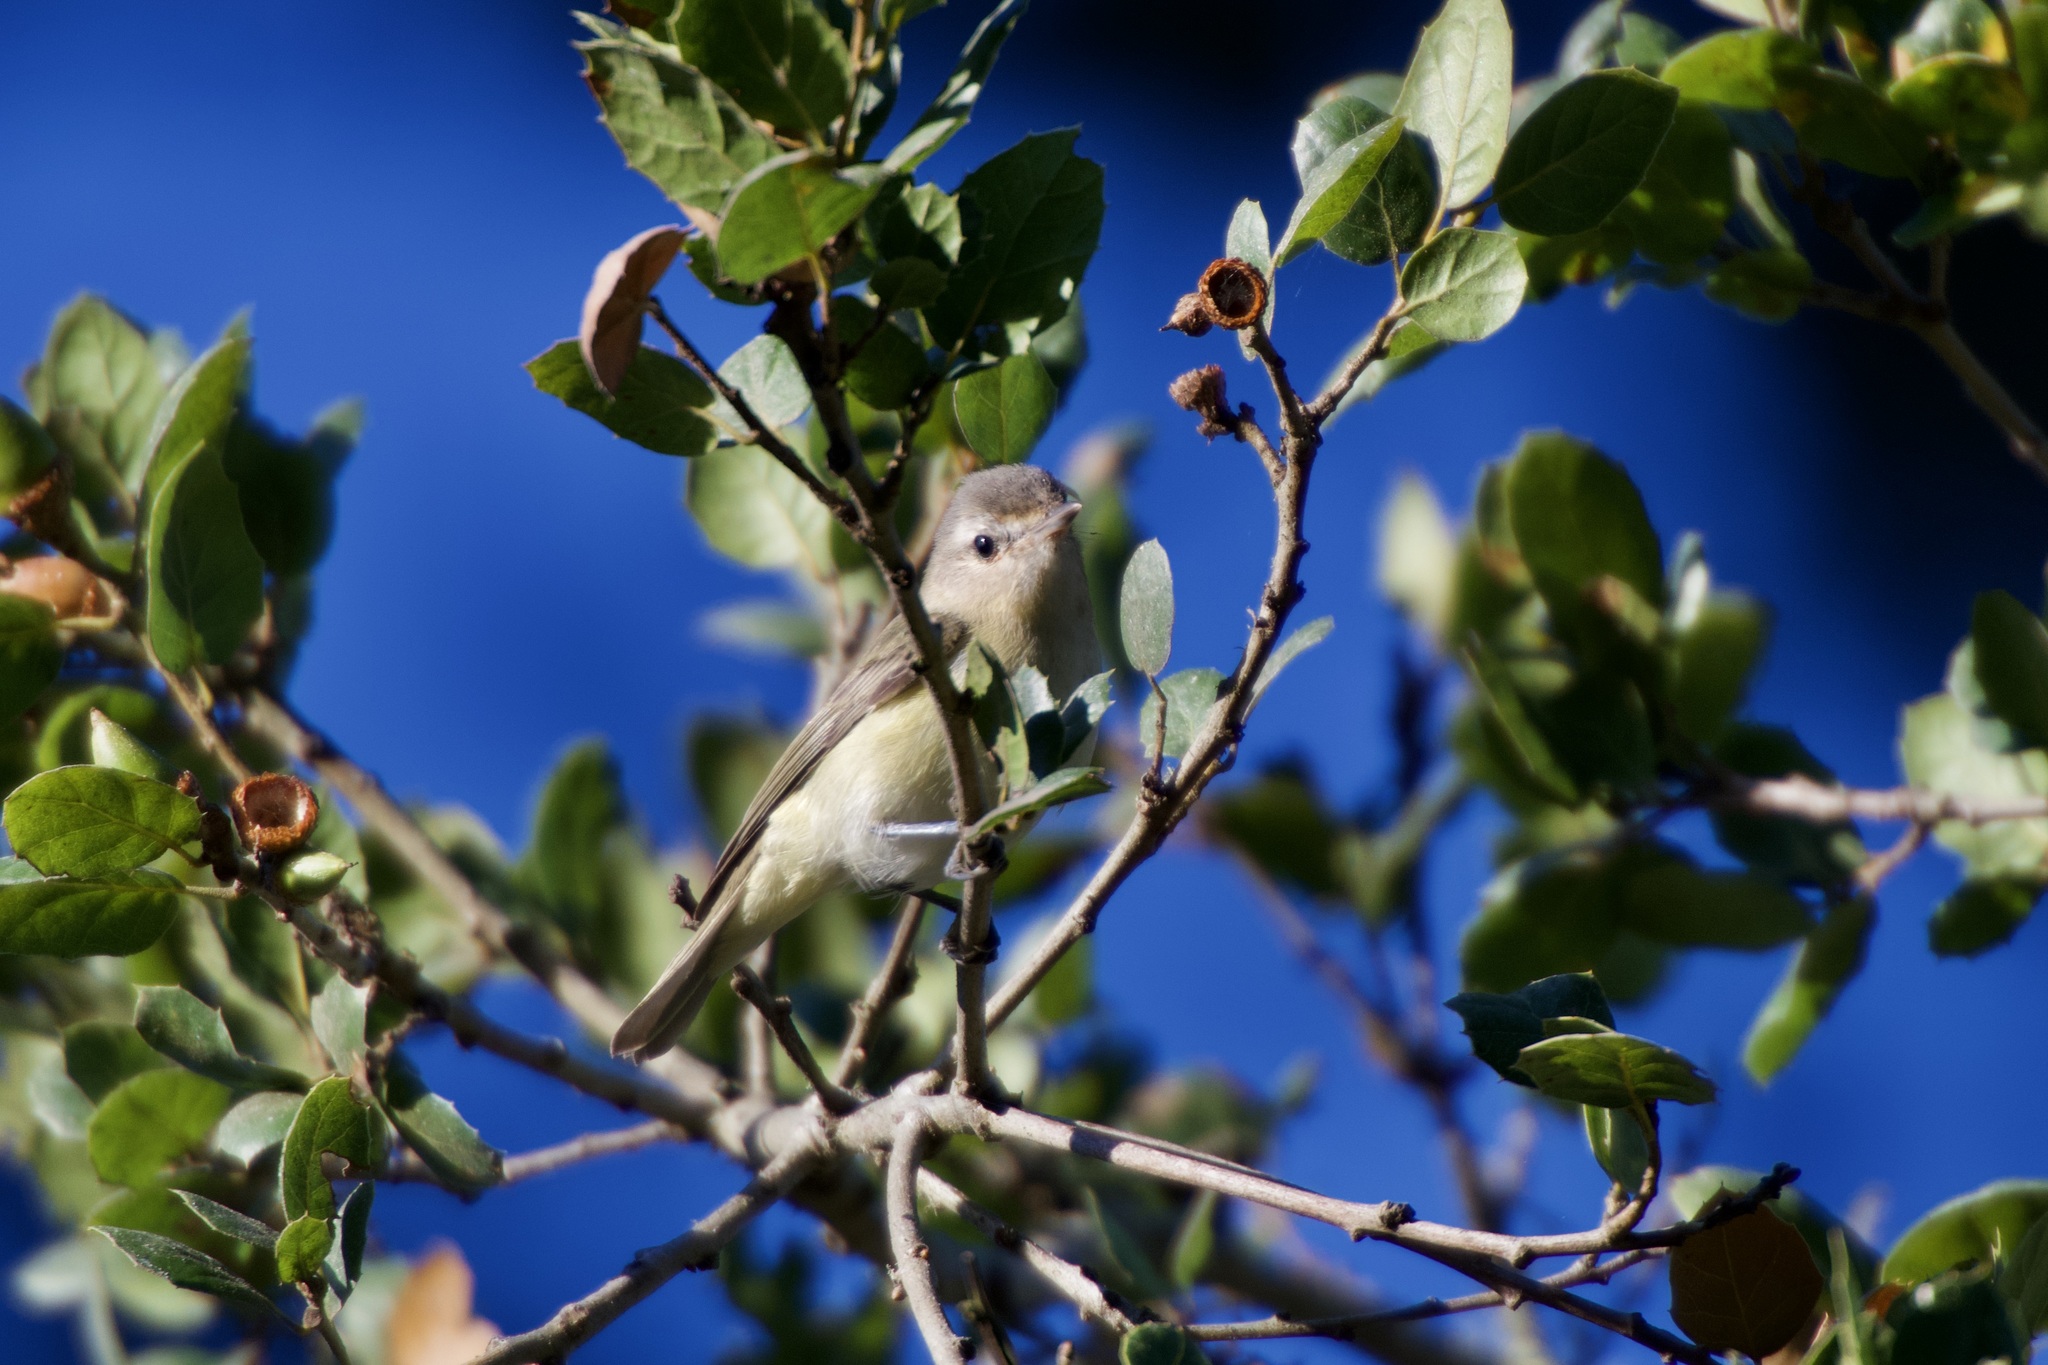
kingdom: Animalia
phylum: Chordata
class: Aves
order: Passeriformes
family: Vireonidae
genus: Vireo
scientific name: Vireo gilvus
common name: Warbling vireo
